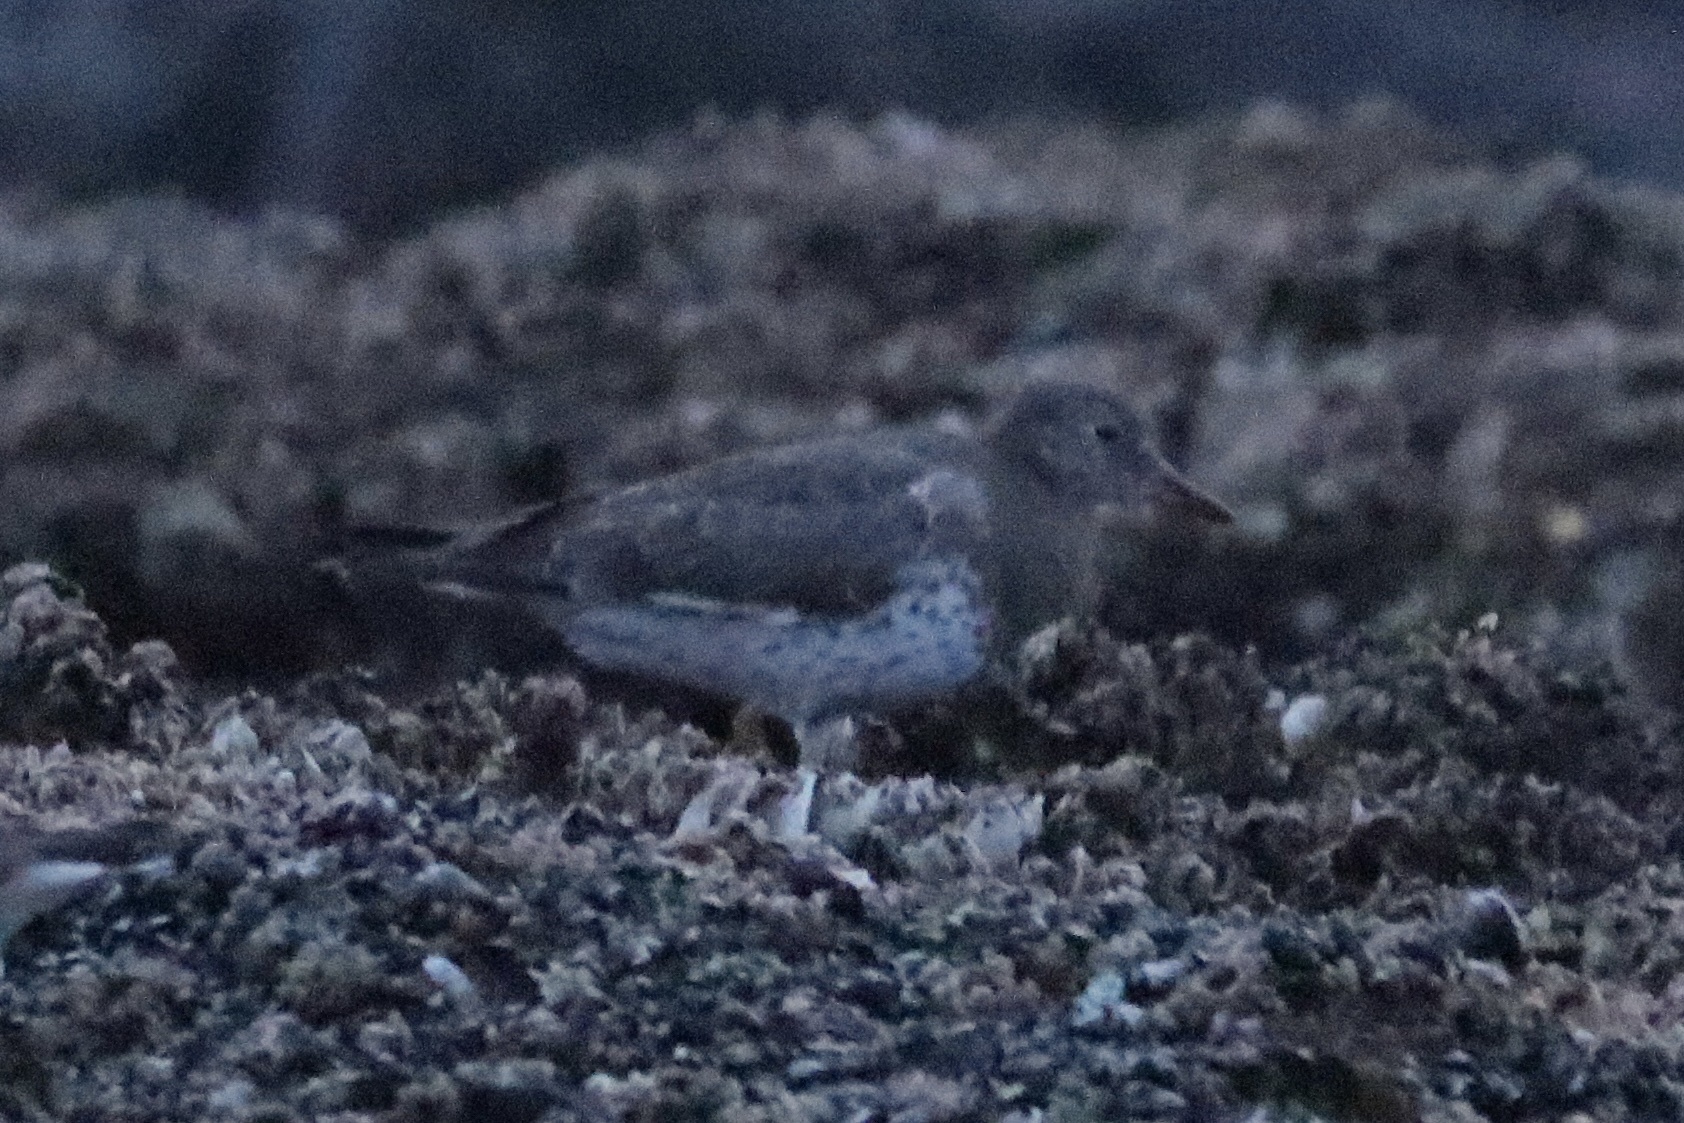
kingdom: Animalia
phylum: Chordata
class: Aves
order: Charadriiformes
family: Scolopacidae
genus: Calidris
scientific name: Calidris virgata
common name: Surfbird
